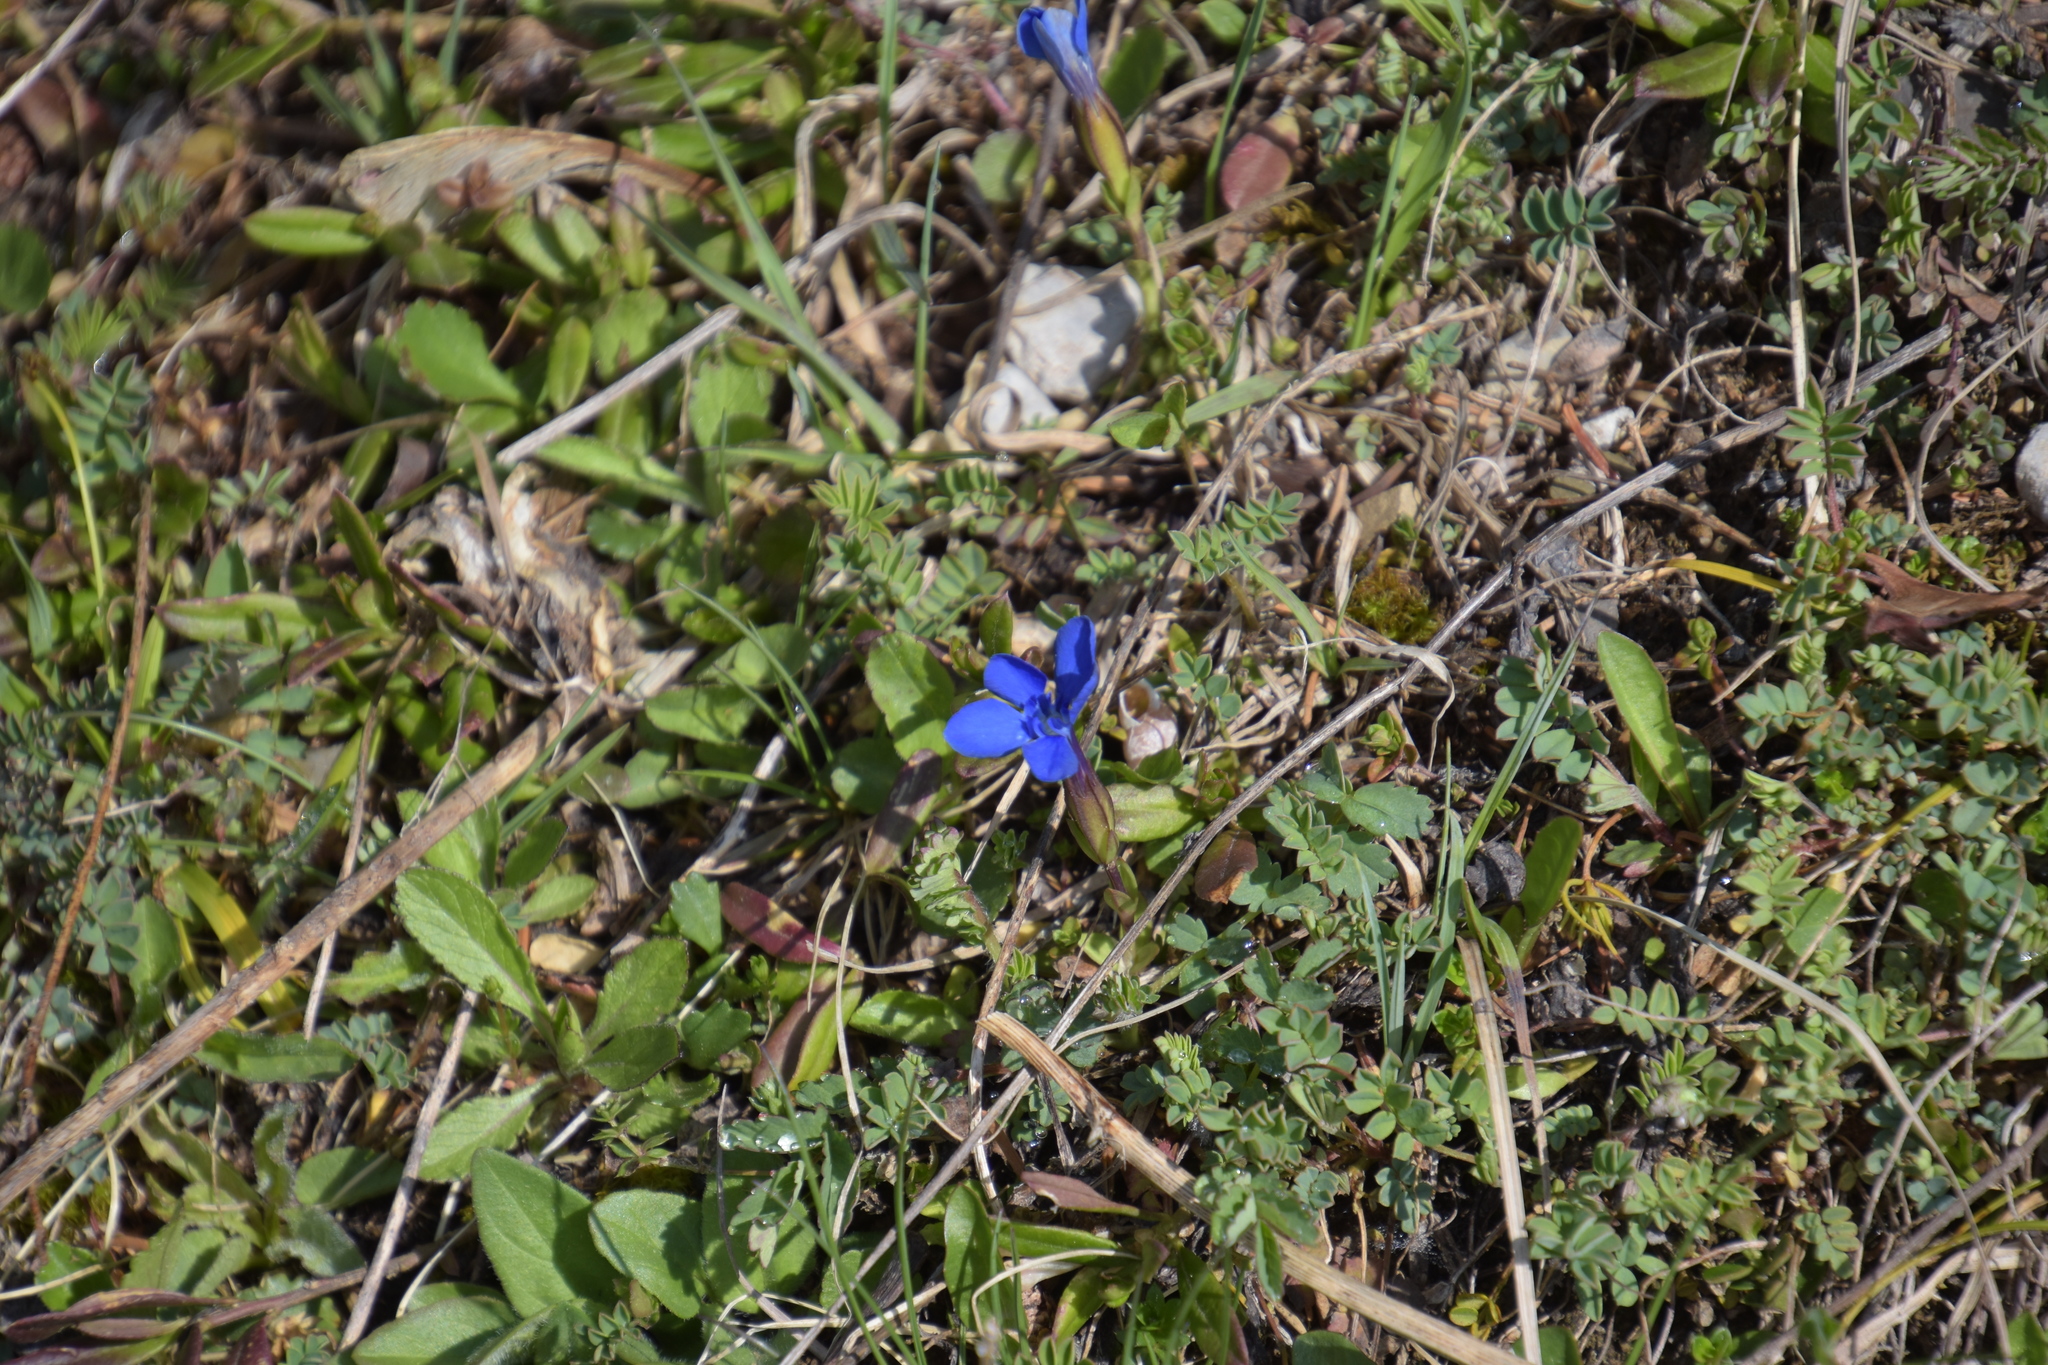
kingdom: Plantae
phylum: Tracheophyta
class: Magnoliopsida
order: Gentianales
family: Gentianaceae
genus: Gentiana
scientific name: Gentiana verna
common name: Spring gentian
